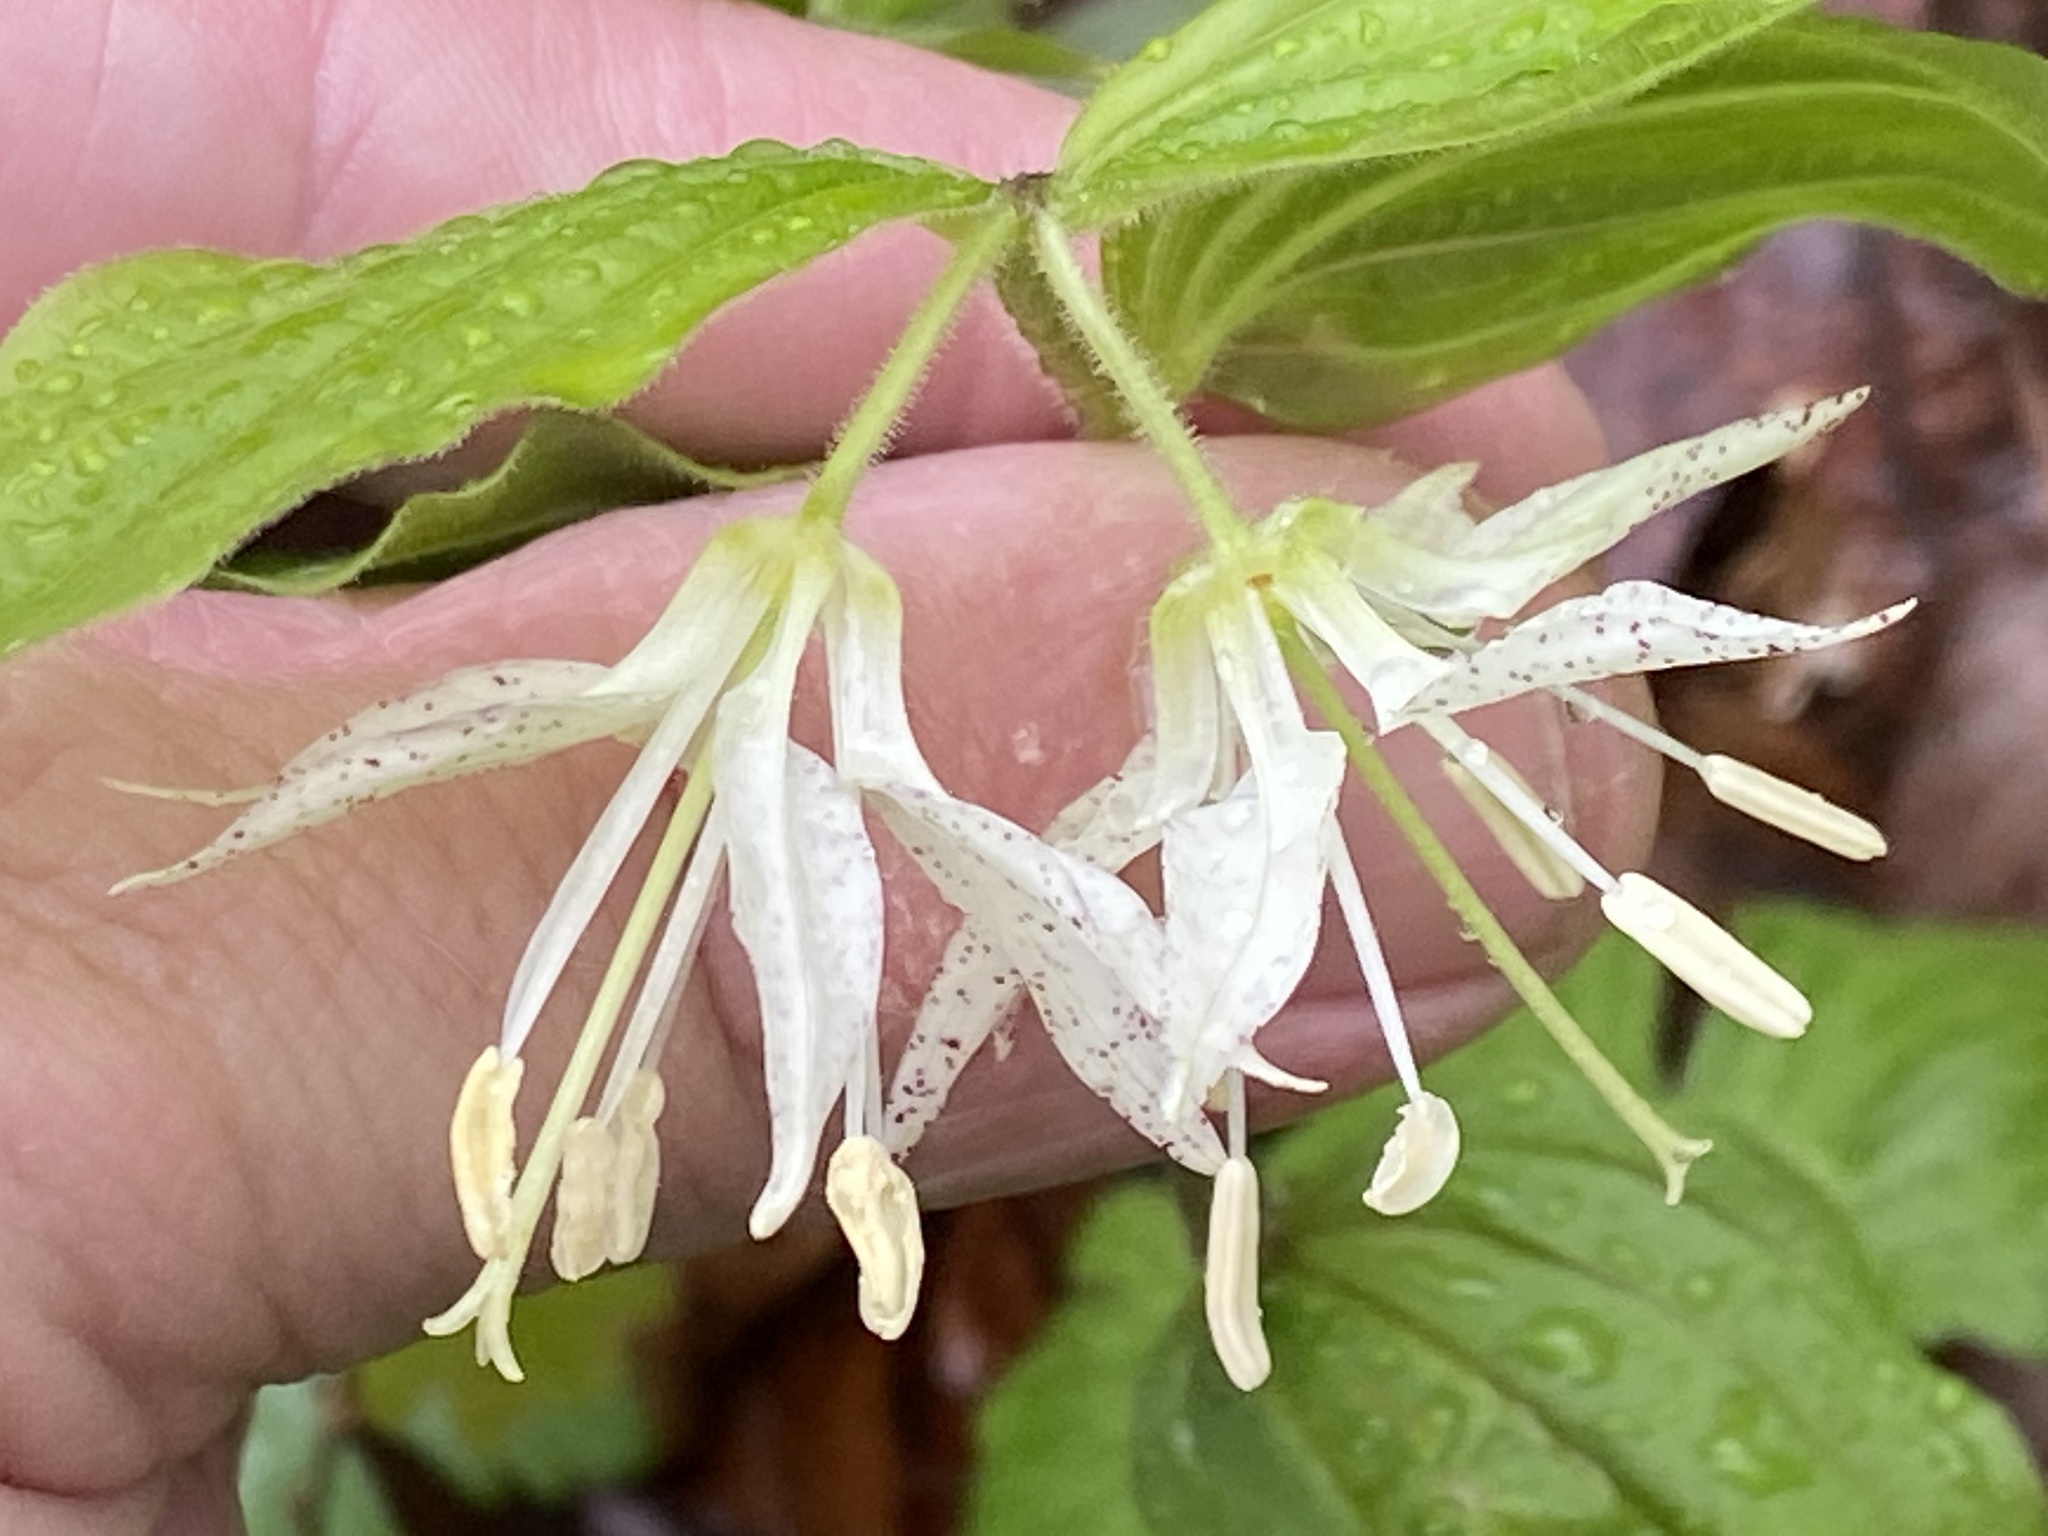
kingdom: Plantae
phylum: Tracheophyta
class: Liliopsida
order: Liliales
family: Liliaceae
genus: Prosartes
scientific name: Prosartes maculata
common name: Yellow mandarin
